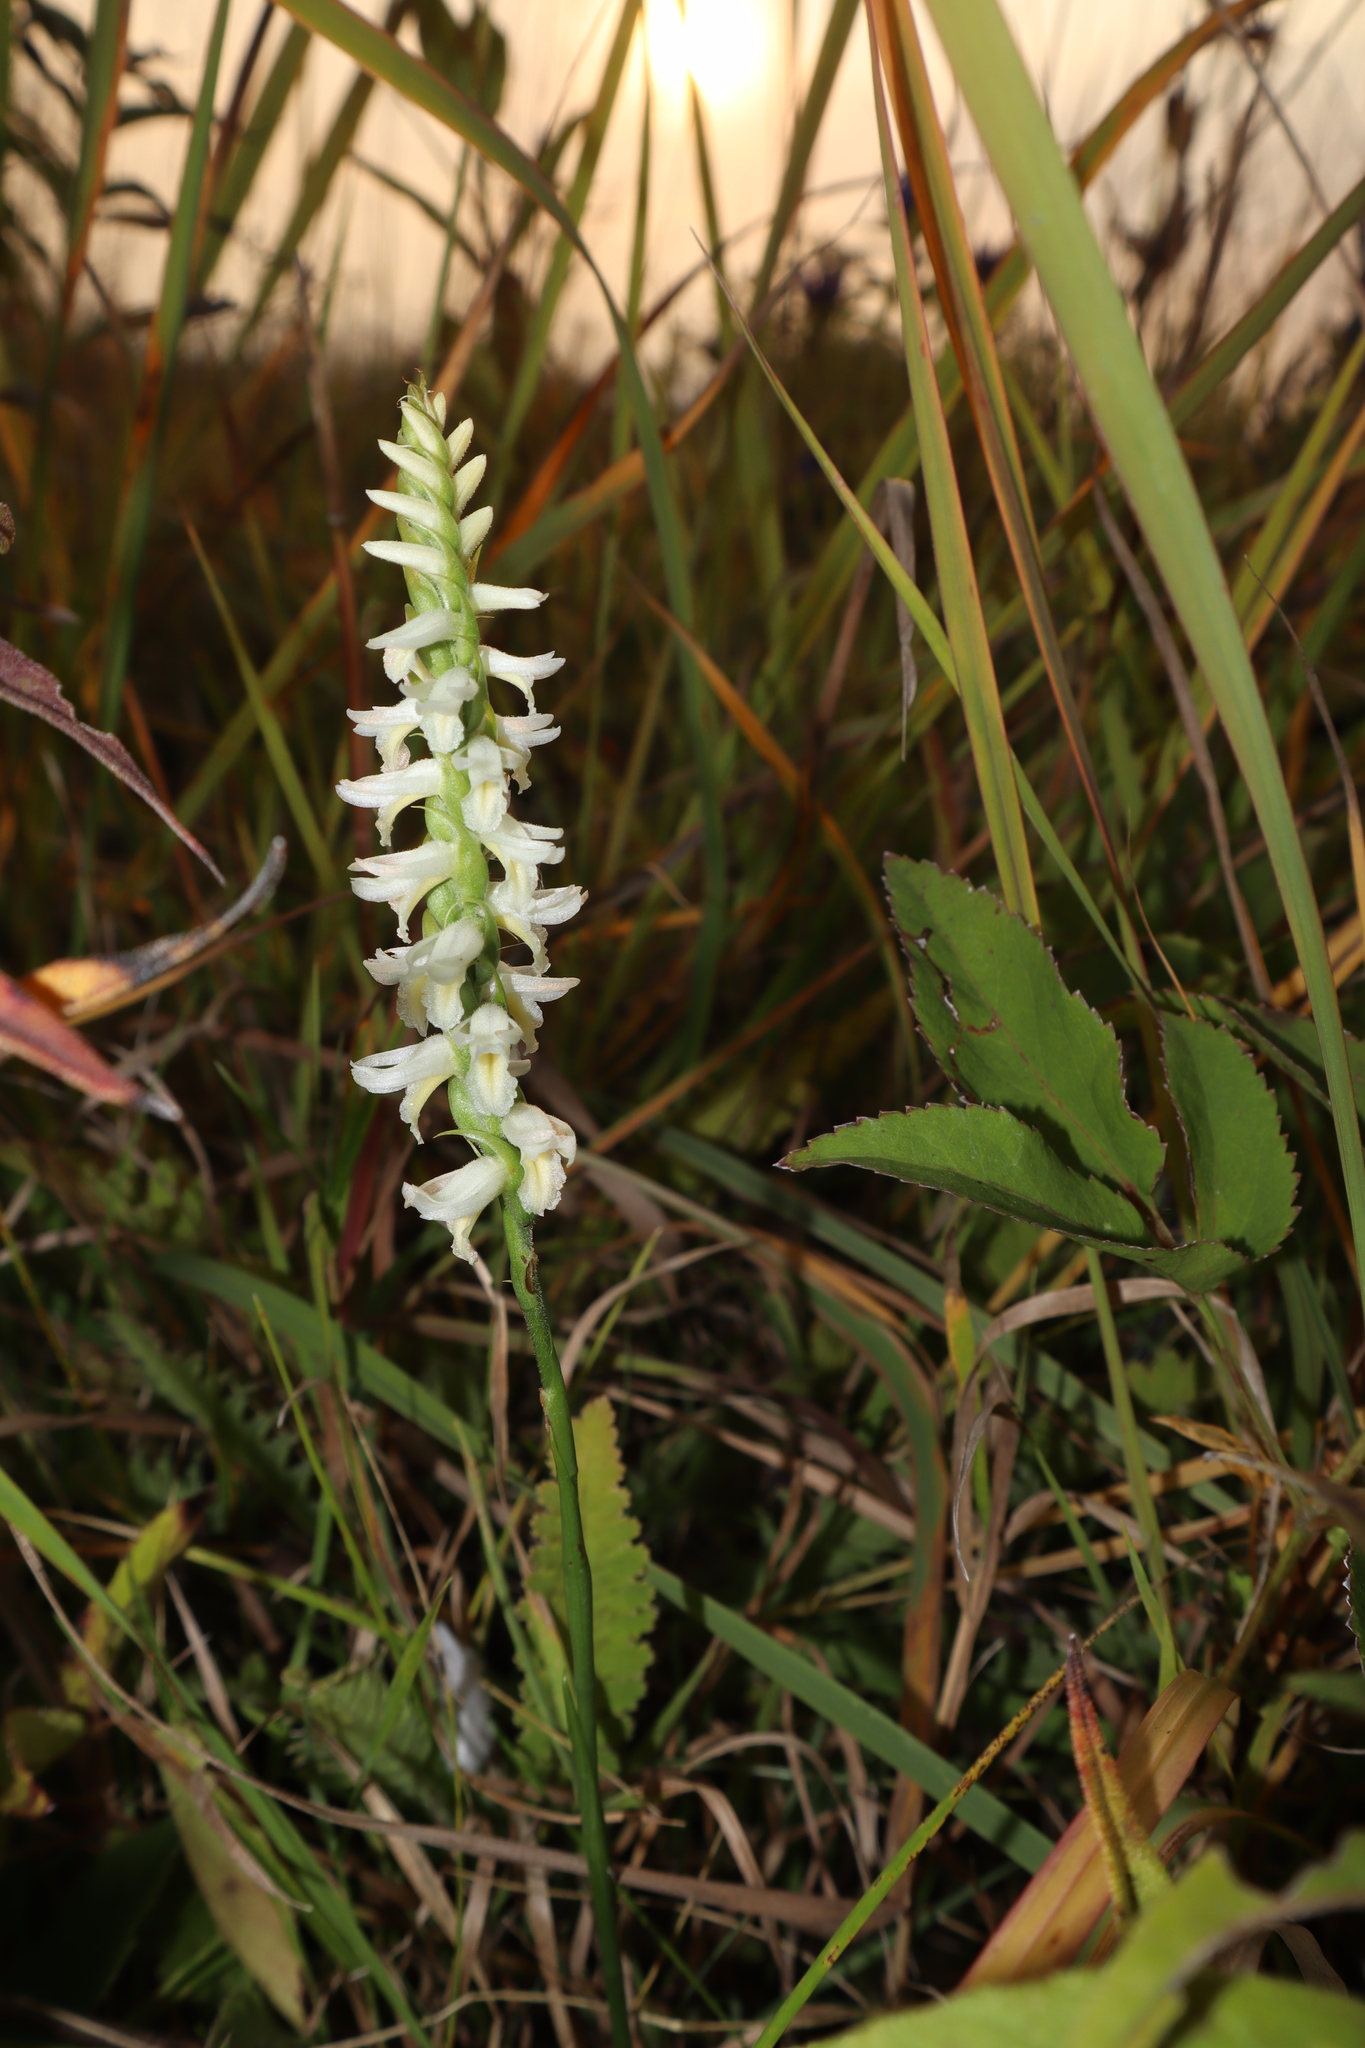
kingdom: Plantae
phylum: Tracheophyta
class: Liliopsida
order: Asparagales
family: Orchidaceae
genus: Spiranthes
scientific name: Spiranthes magnicamporum
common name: Great plains ladies'-tresses
